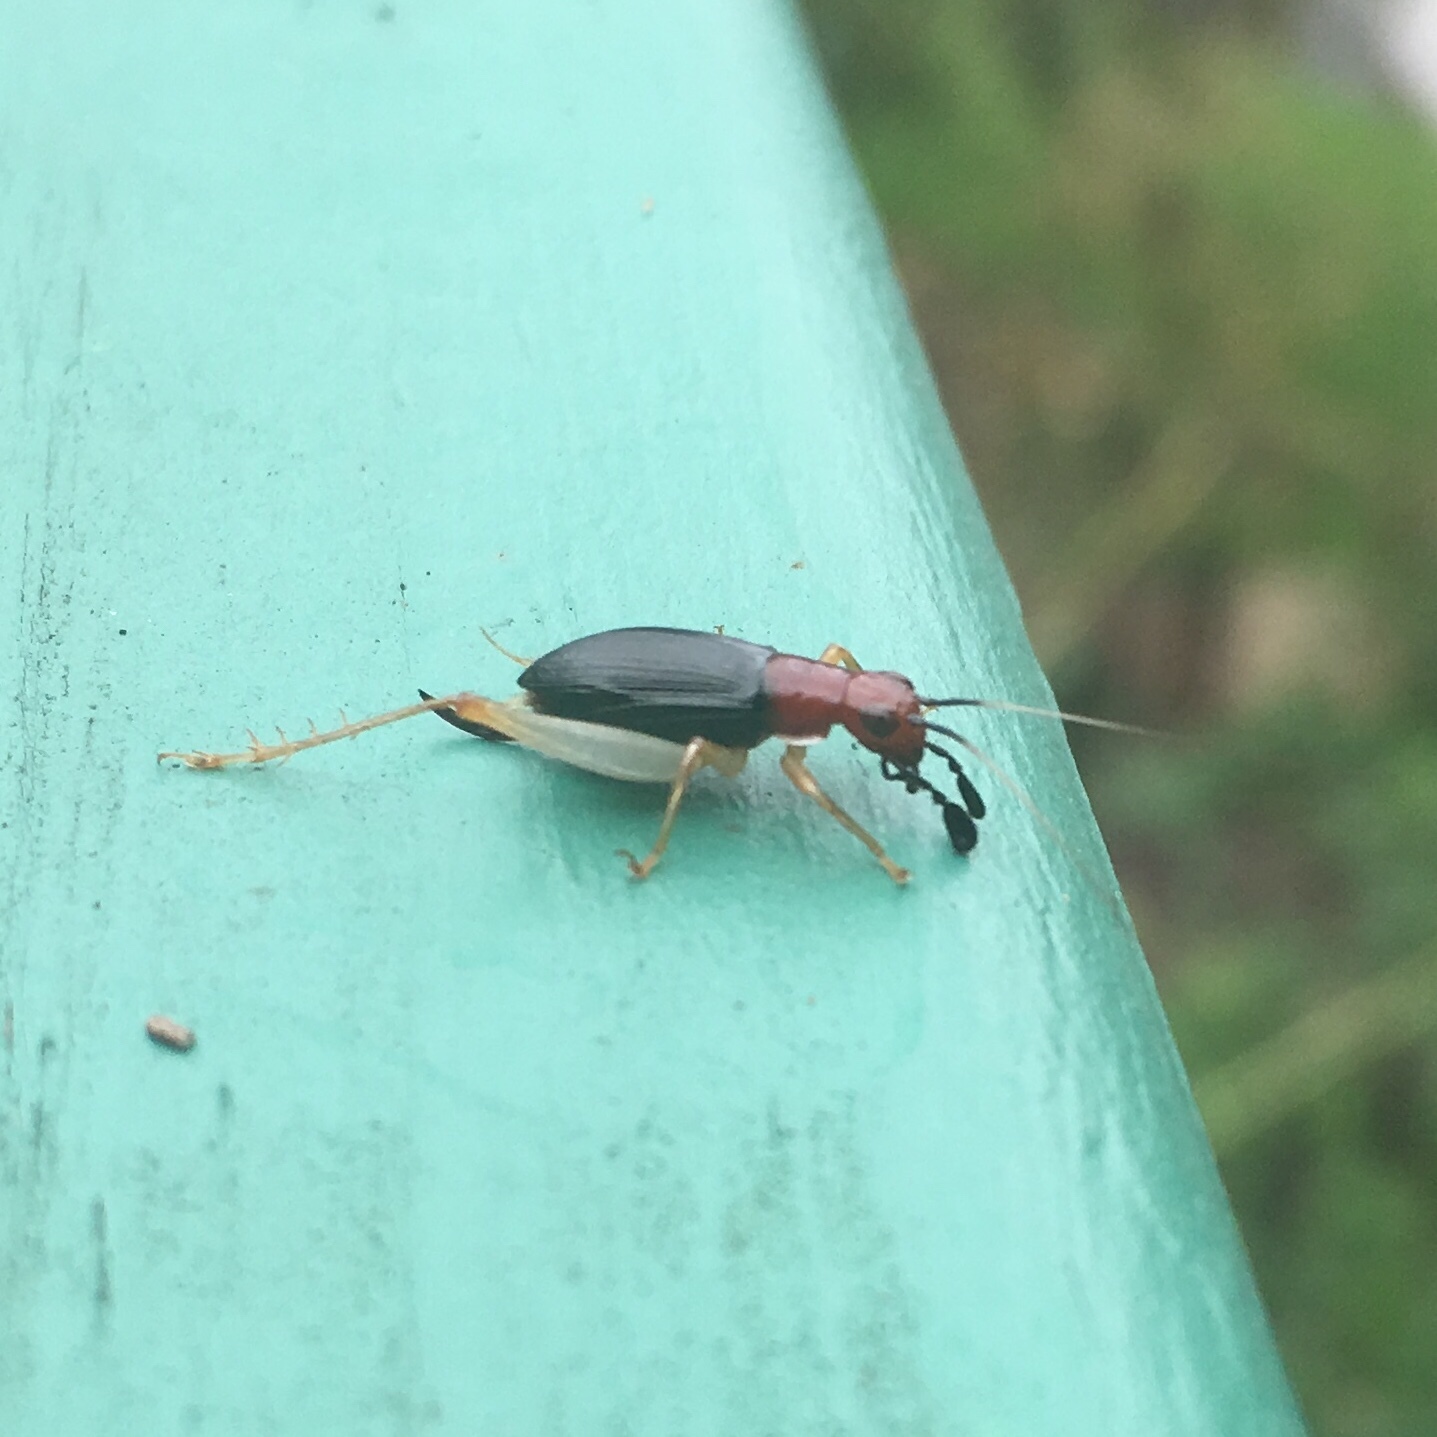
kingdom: Animalia
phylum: Arthropoda
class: Insecta
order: Orthoptera
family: Trigonidiidae
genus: Phyllopalpus
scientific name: Phyllopalpus pulchellus
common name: Handsome trig
